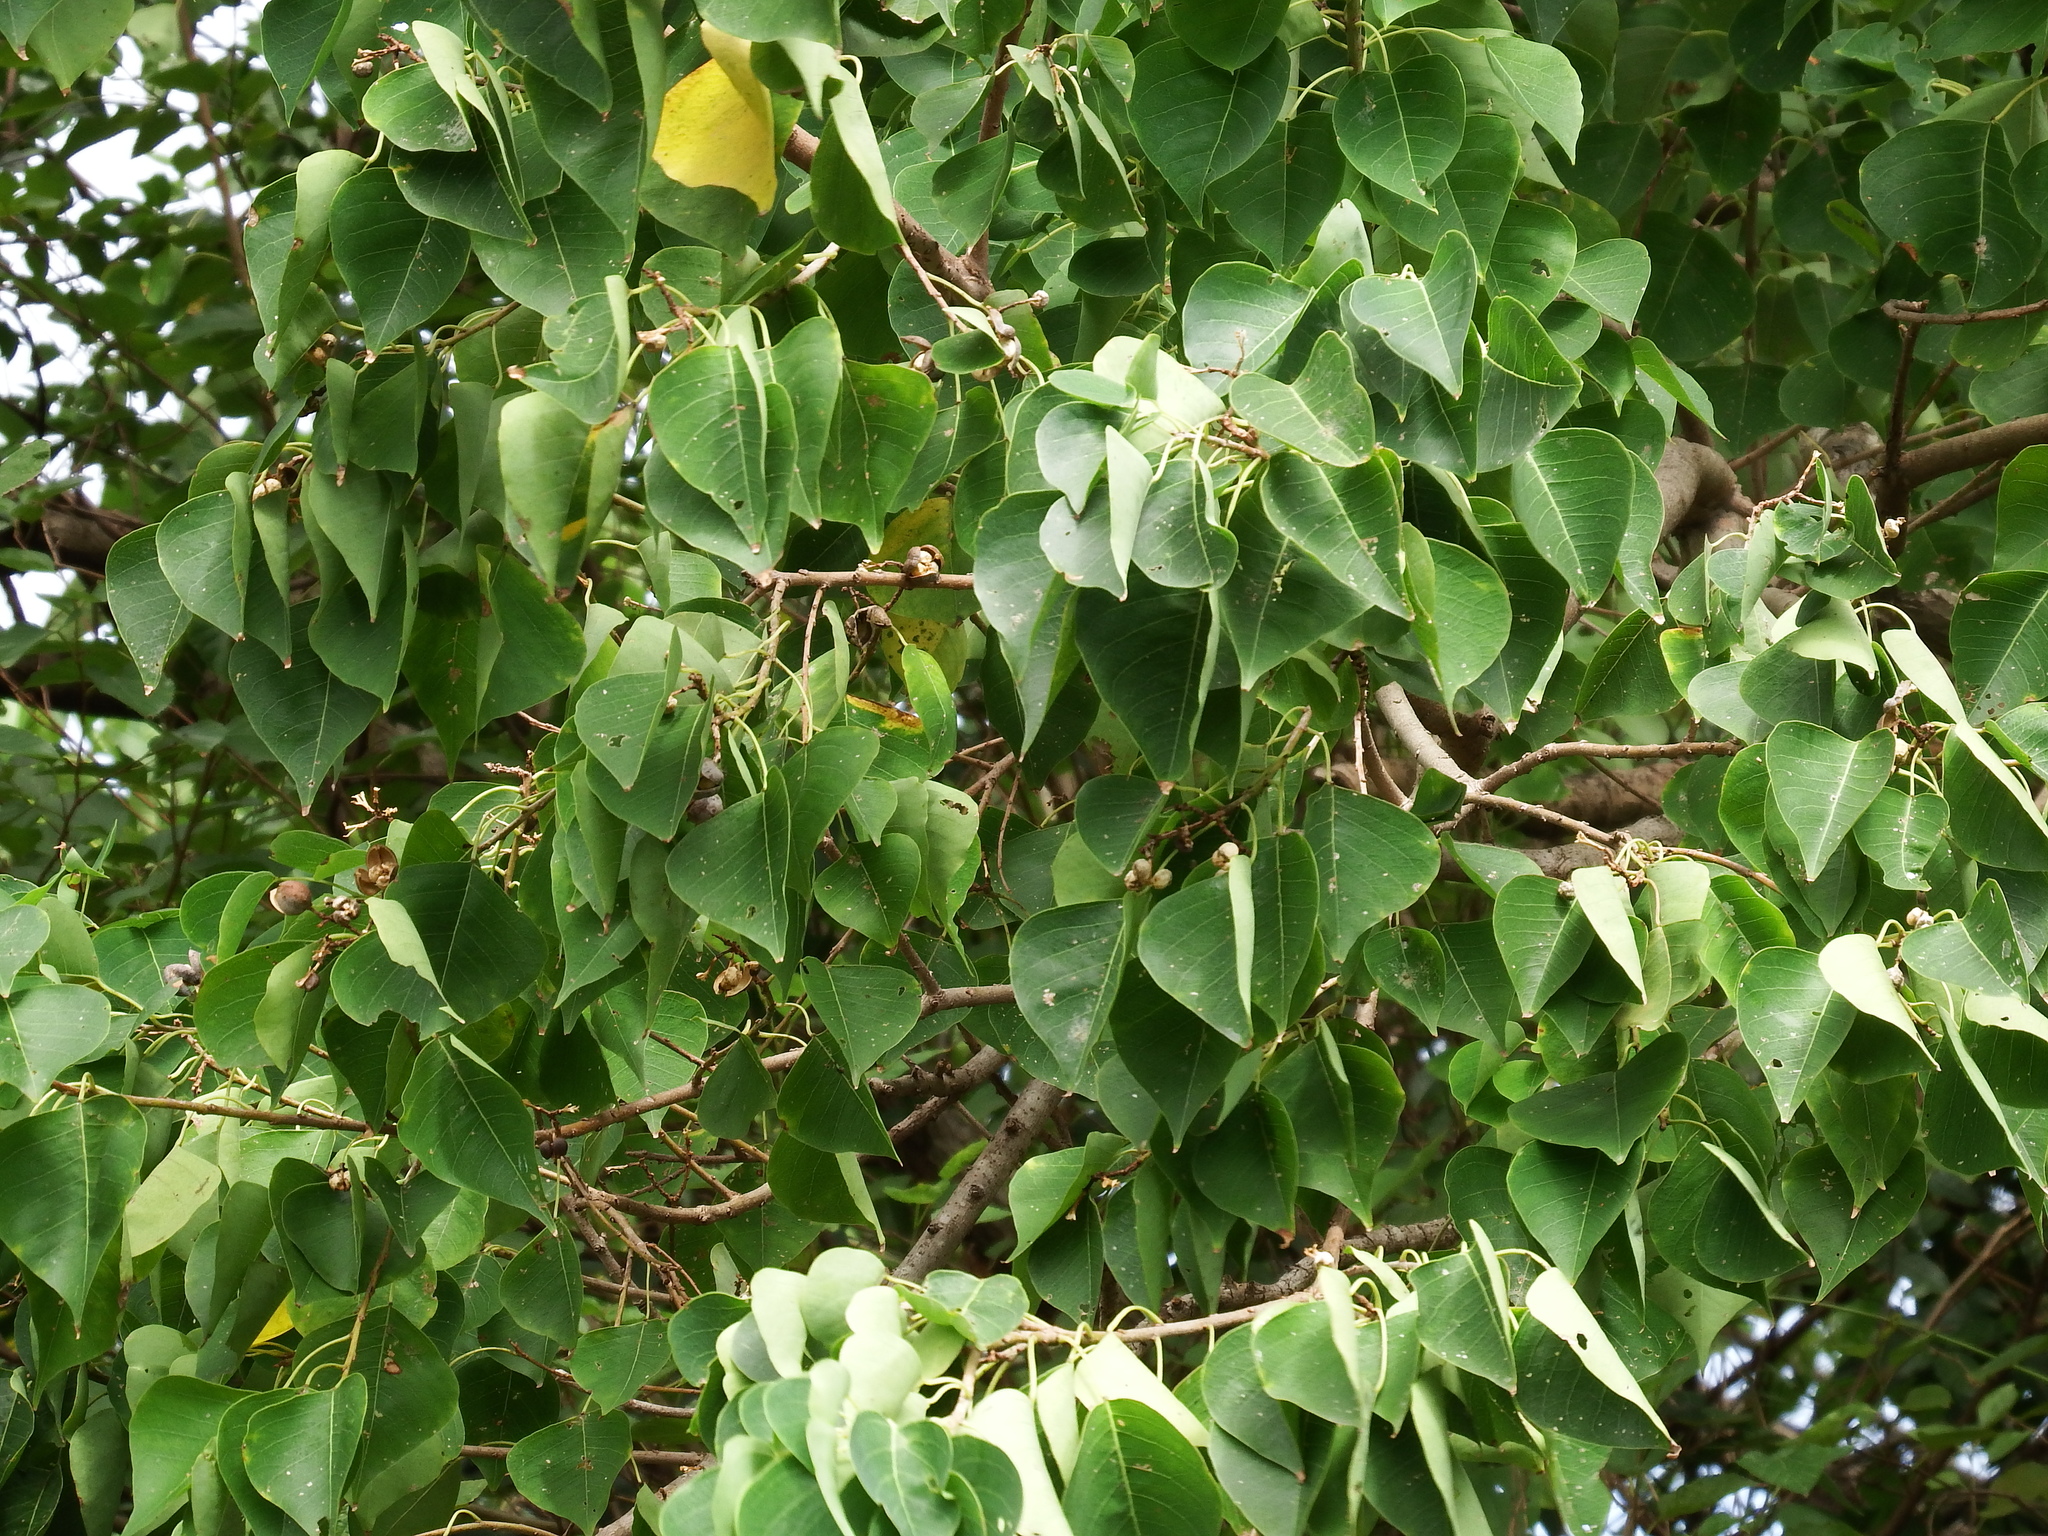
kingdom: Plantae
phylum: Tracheophyta
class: Magnoliopsida
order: Malpighiales
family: Euphorbiaceae
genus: Triadica
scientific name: Triadica sebifera
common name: Chinese tallow
